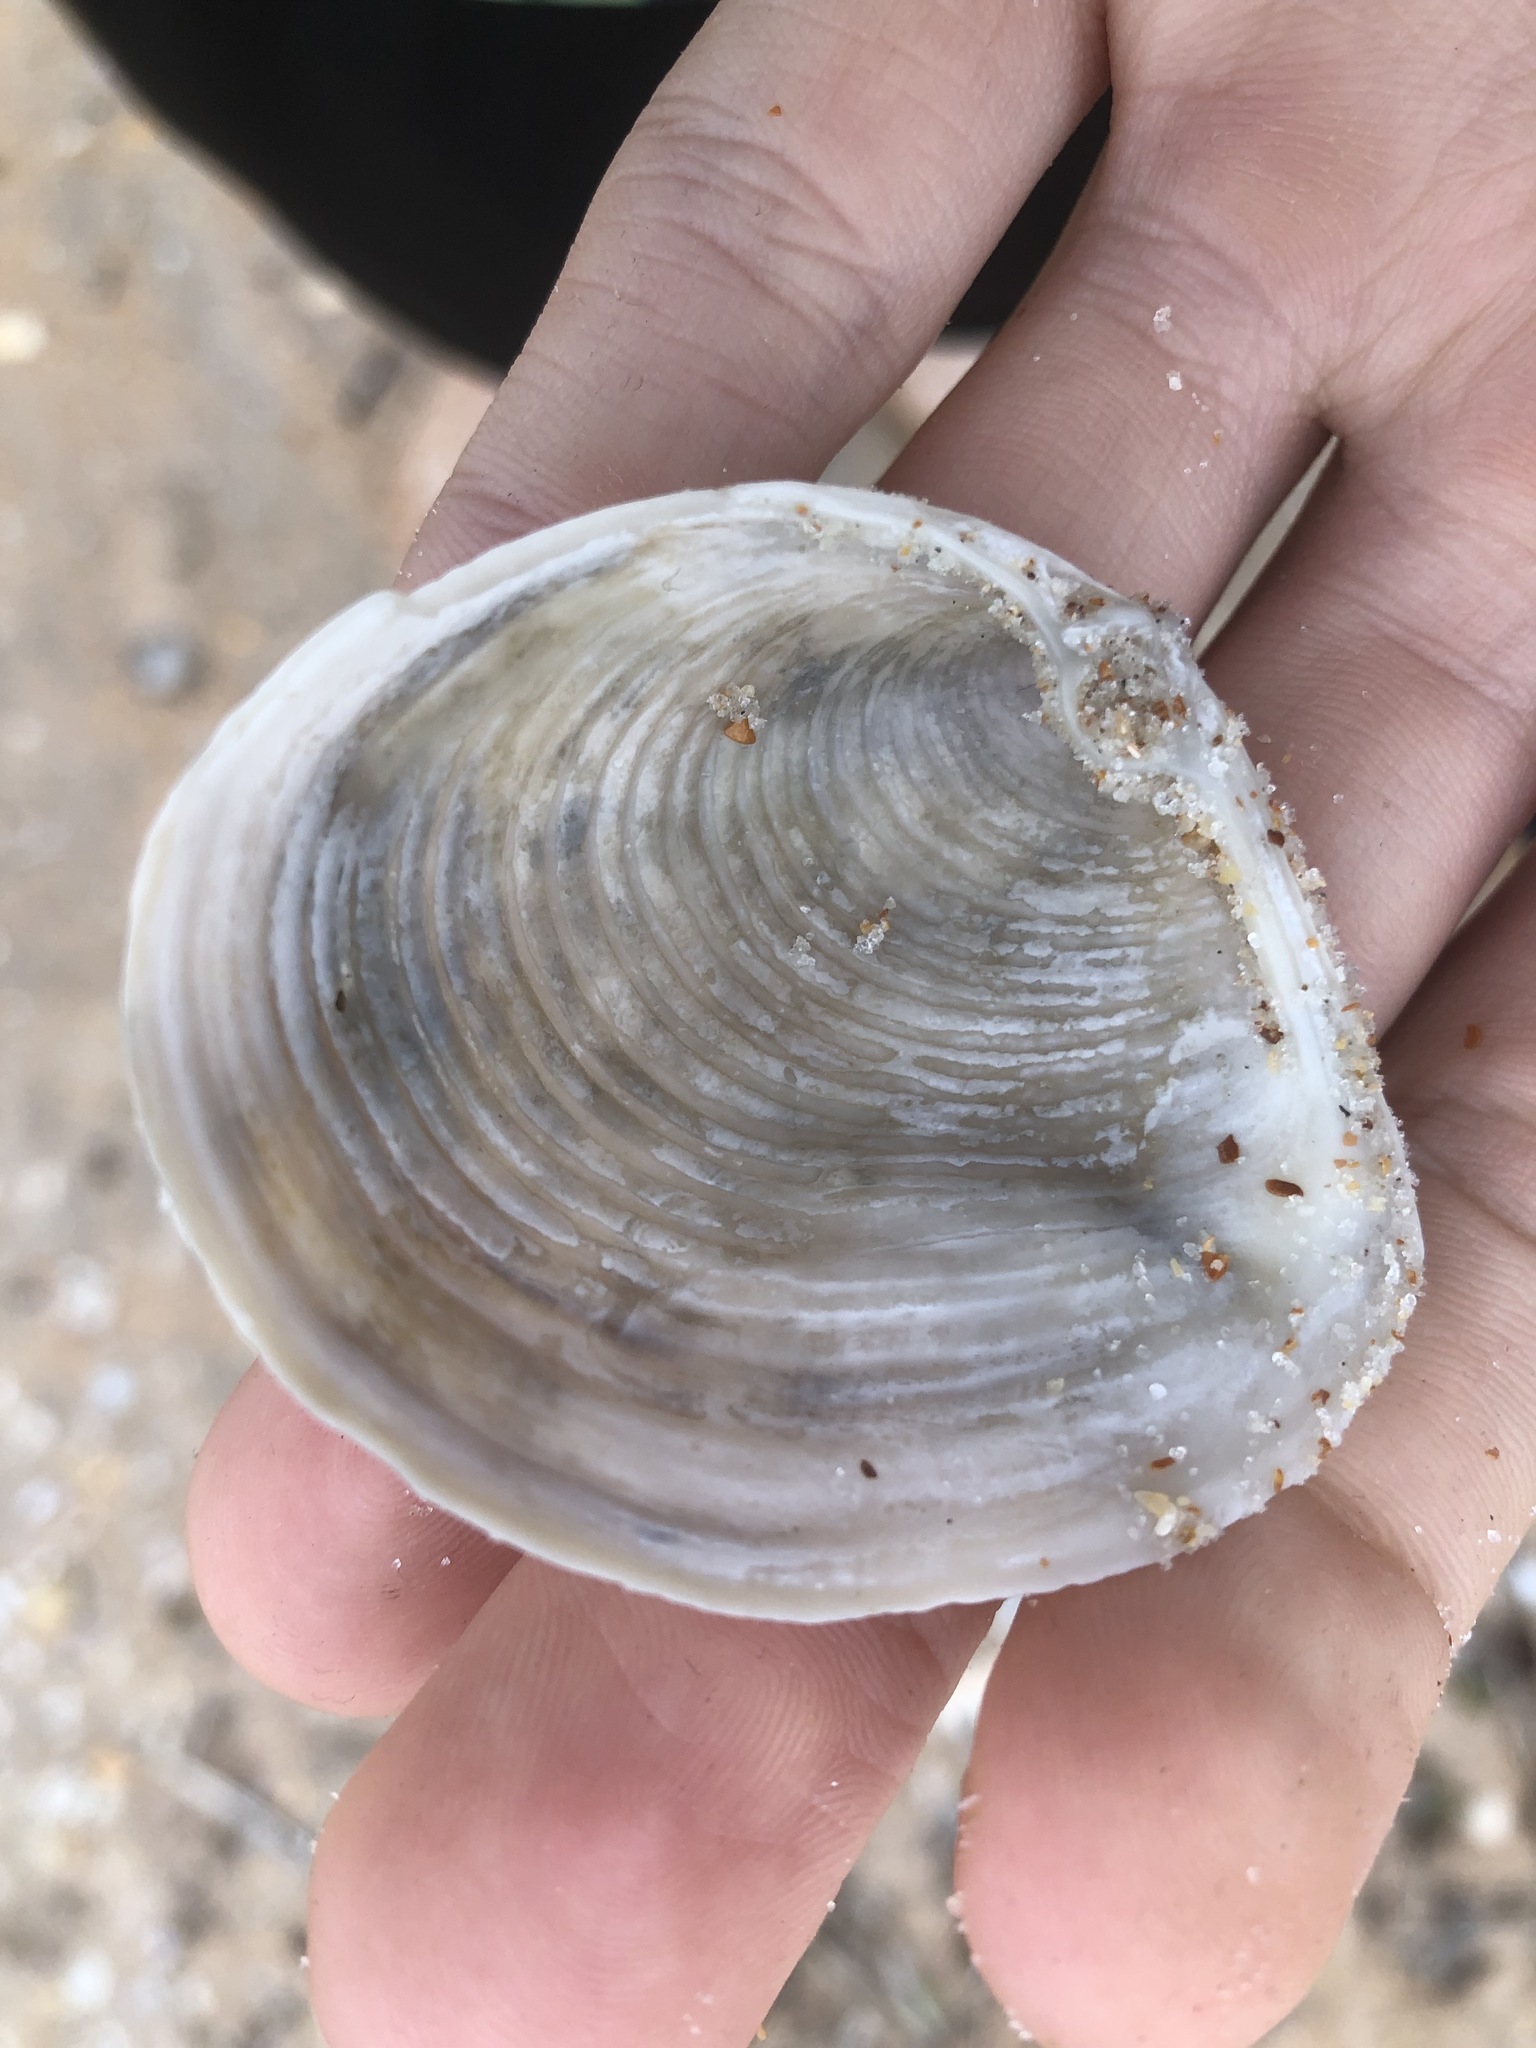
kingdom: Animalia
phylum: Mollusca
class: Bivalvia
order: Venerida
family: Anatinellidae
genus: Raeta
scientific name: Raeta plicatella
